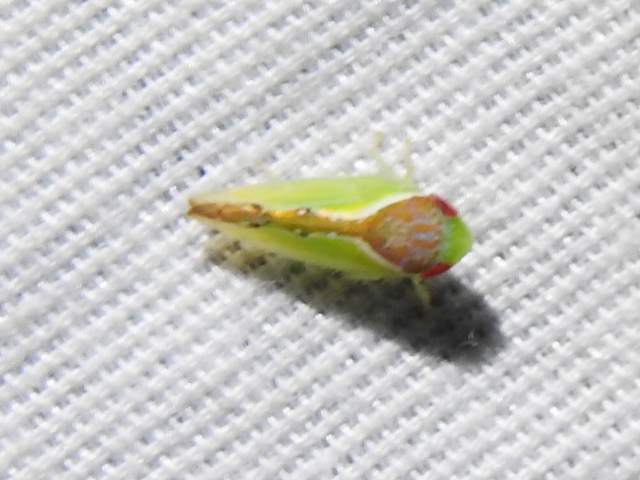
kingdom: Animalia
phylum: Arthropoda
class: Insecta
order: Hemiptera
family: Cicadellidae
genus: Omansobara ing
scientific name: Omansobara ing Omansobara palliolata
